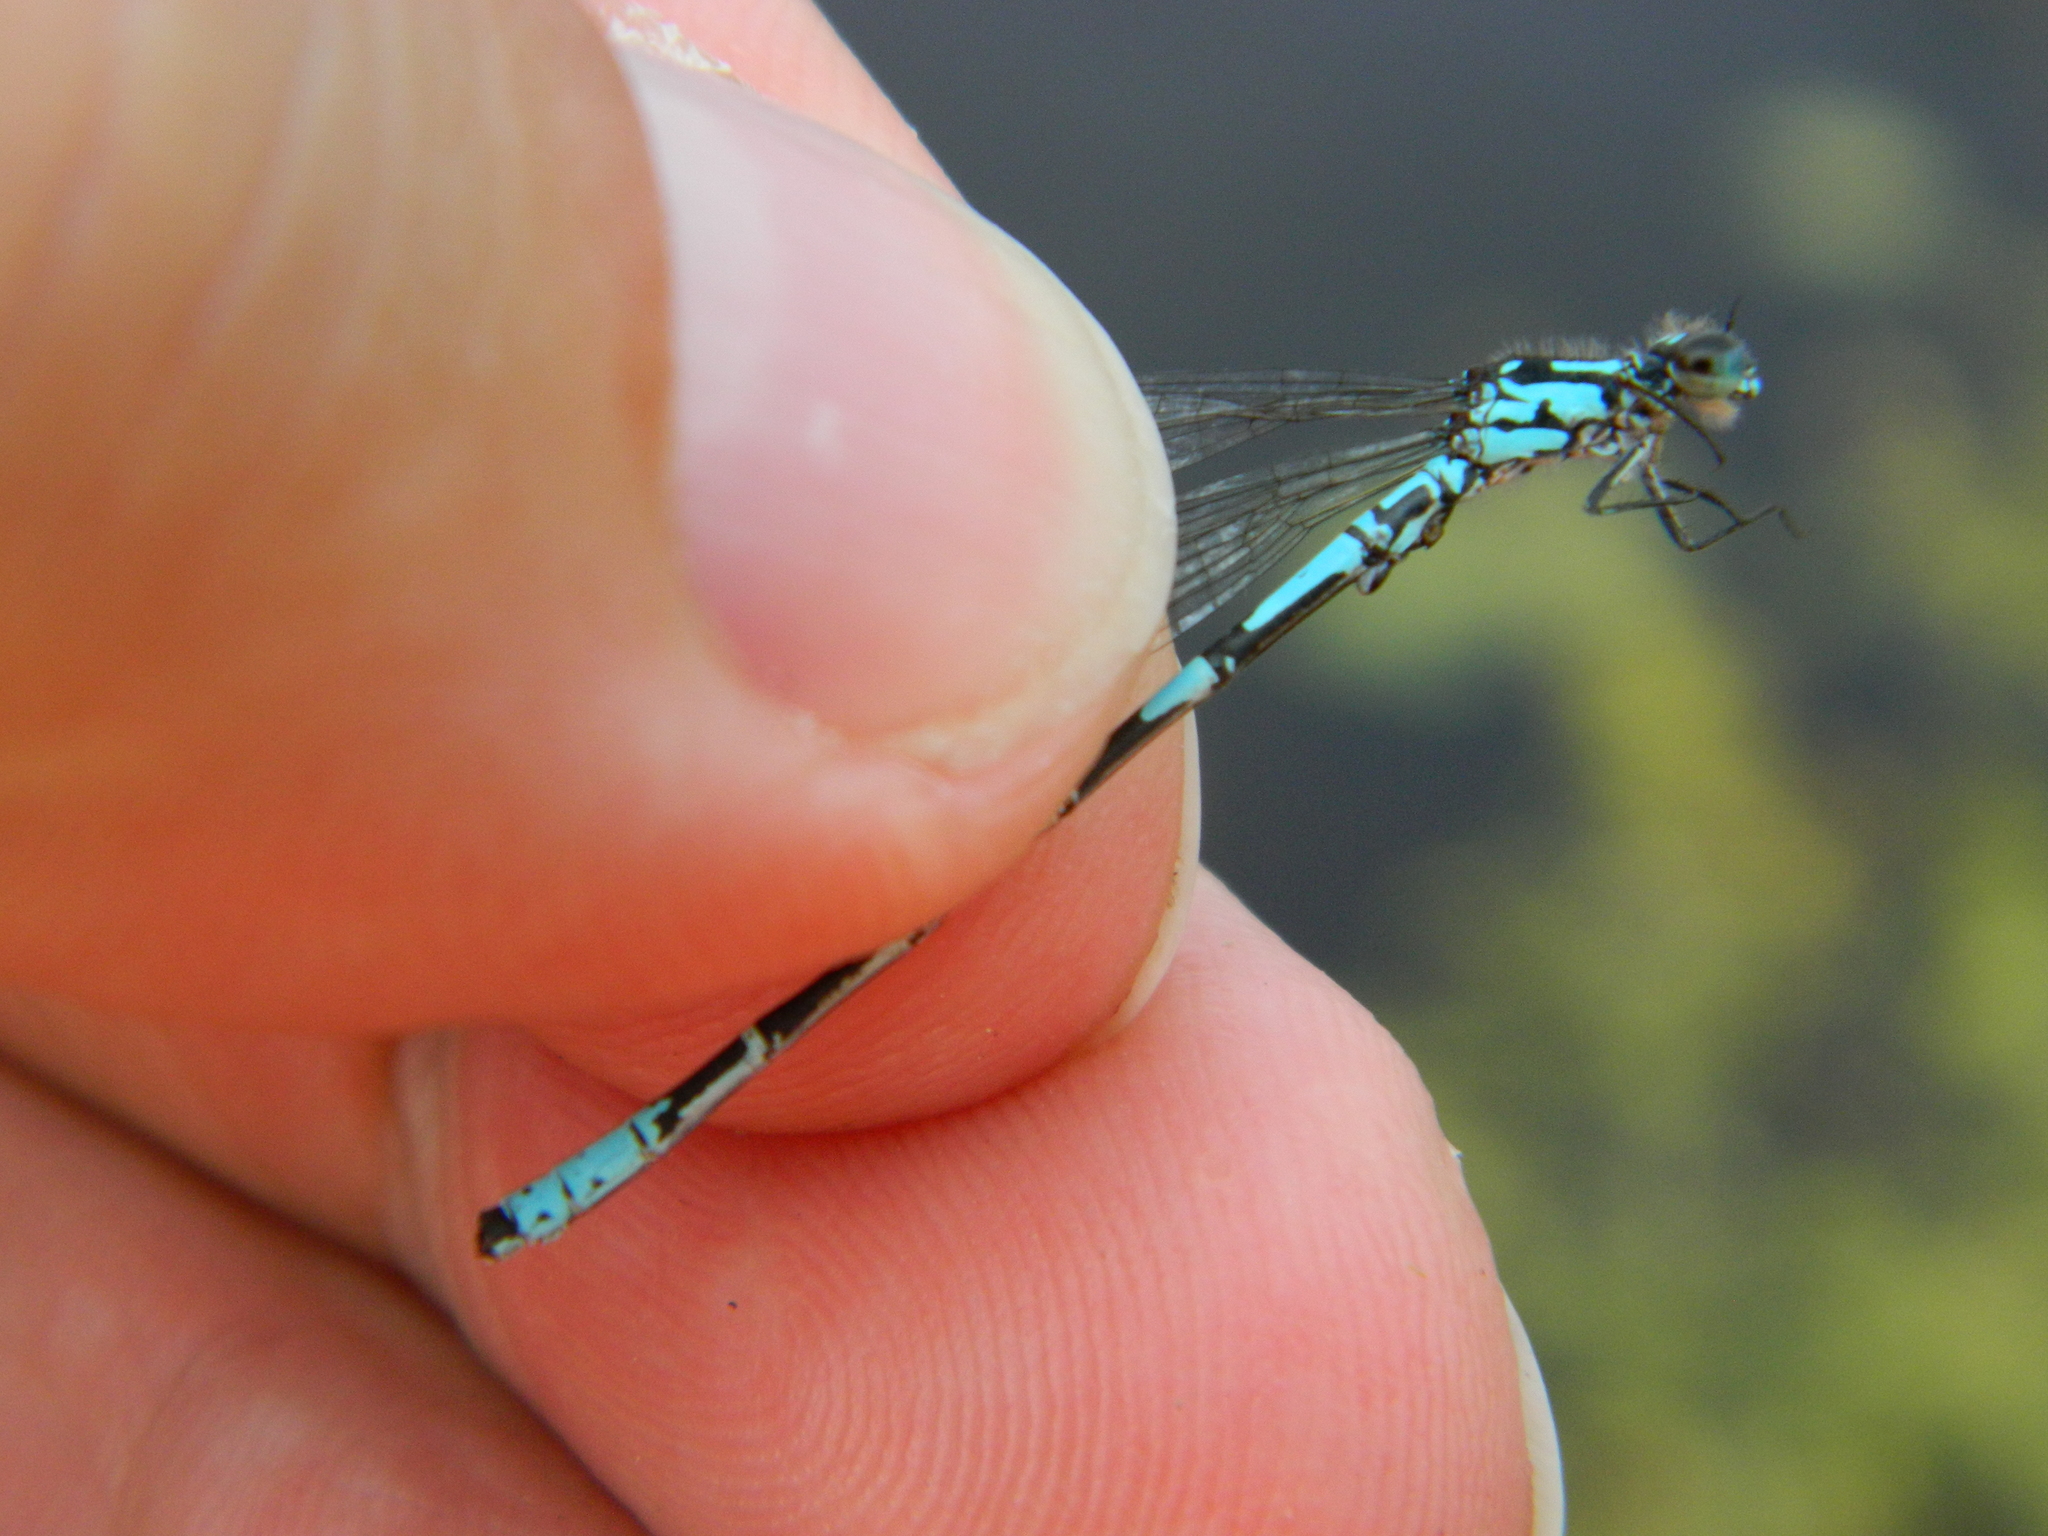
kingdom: Animalia
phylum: Arthropoda
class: Insecta
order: Odonata
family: Coenagrionidae
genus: Coenagrion
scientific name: Coenagrion interrogatum
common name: Subarctic bluet
